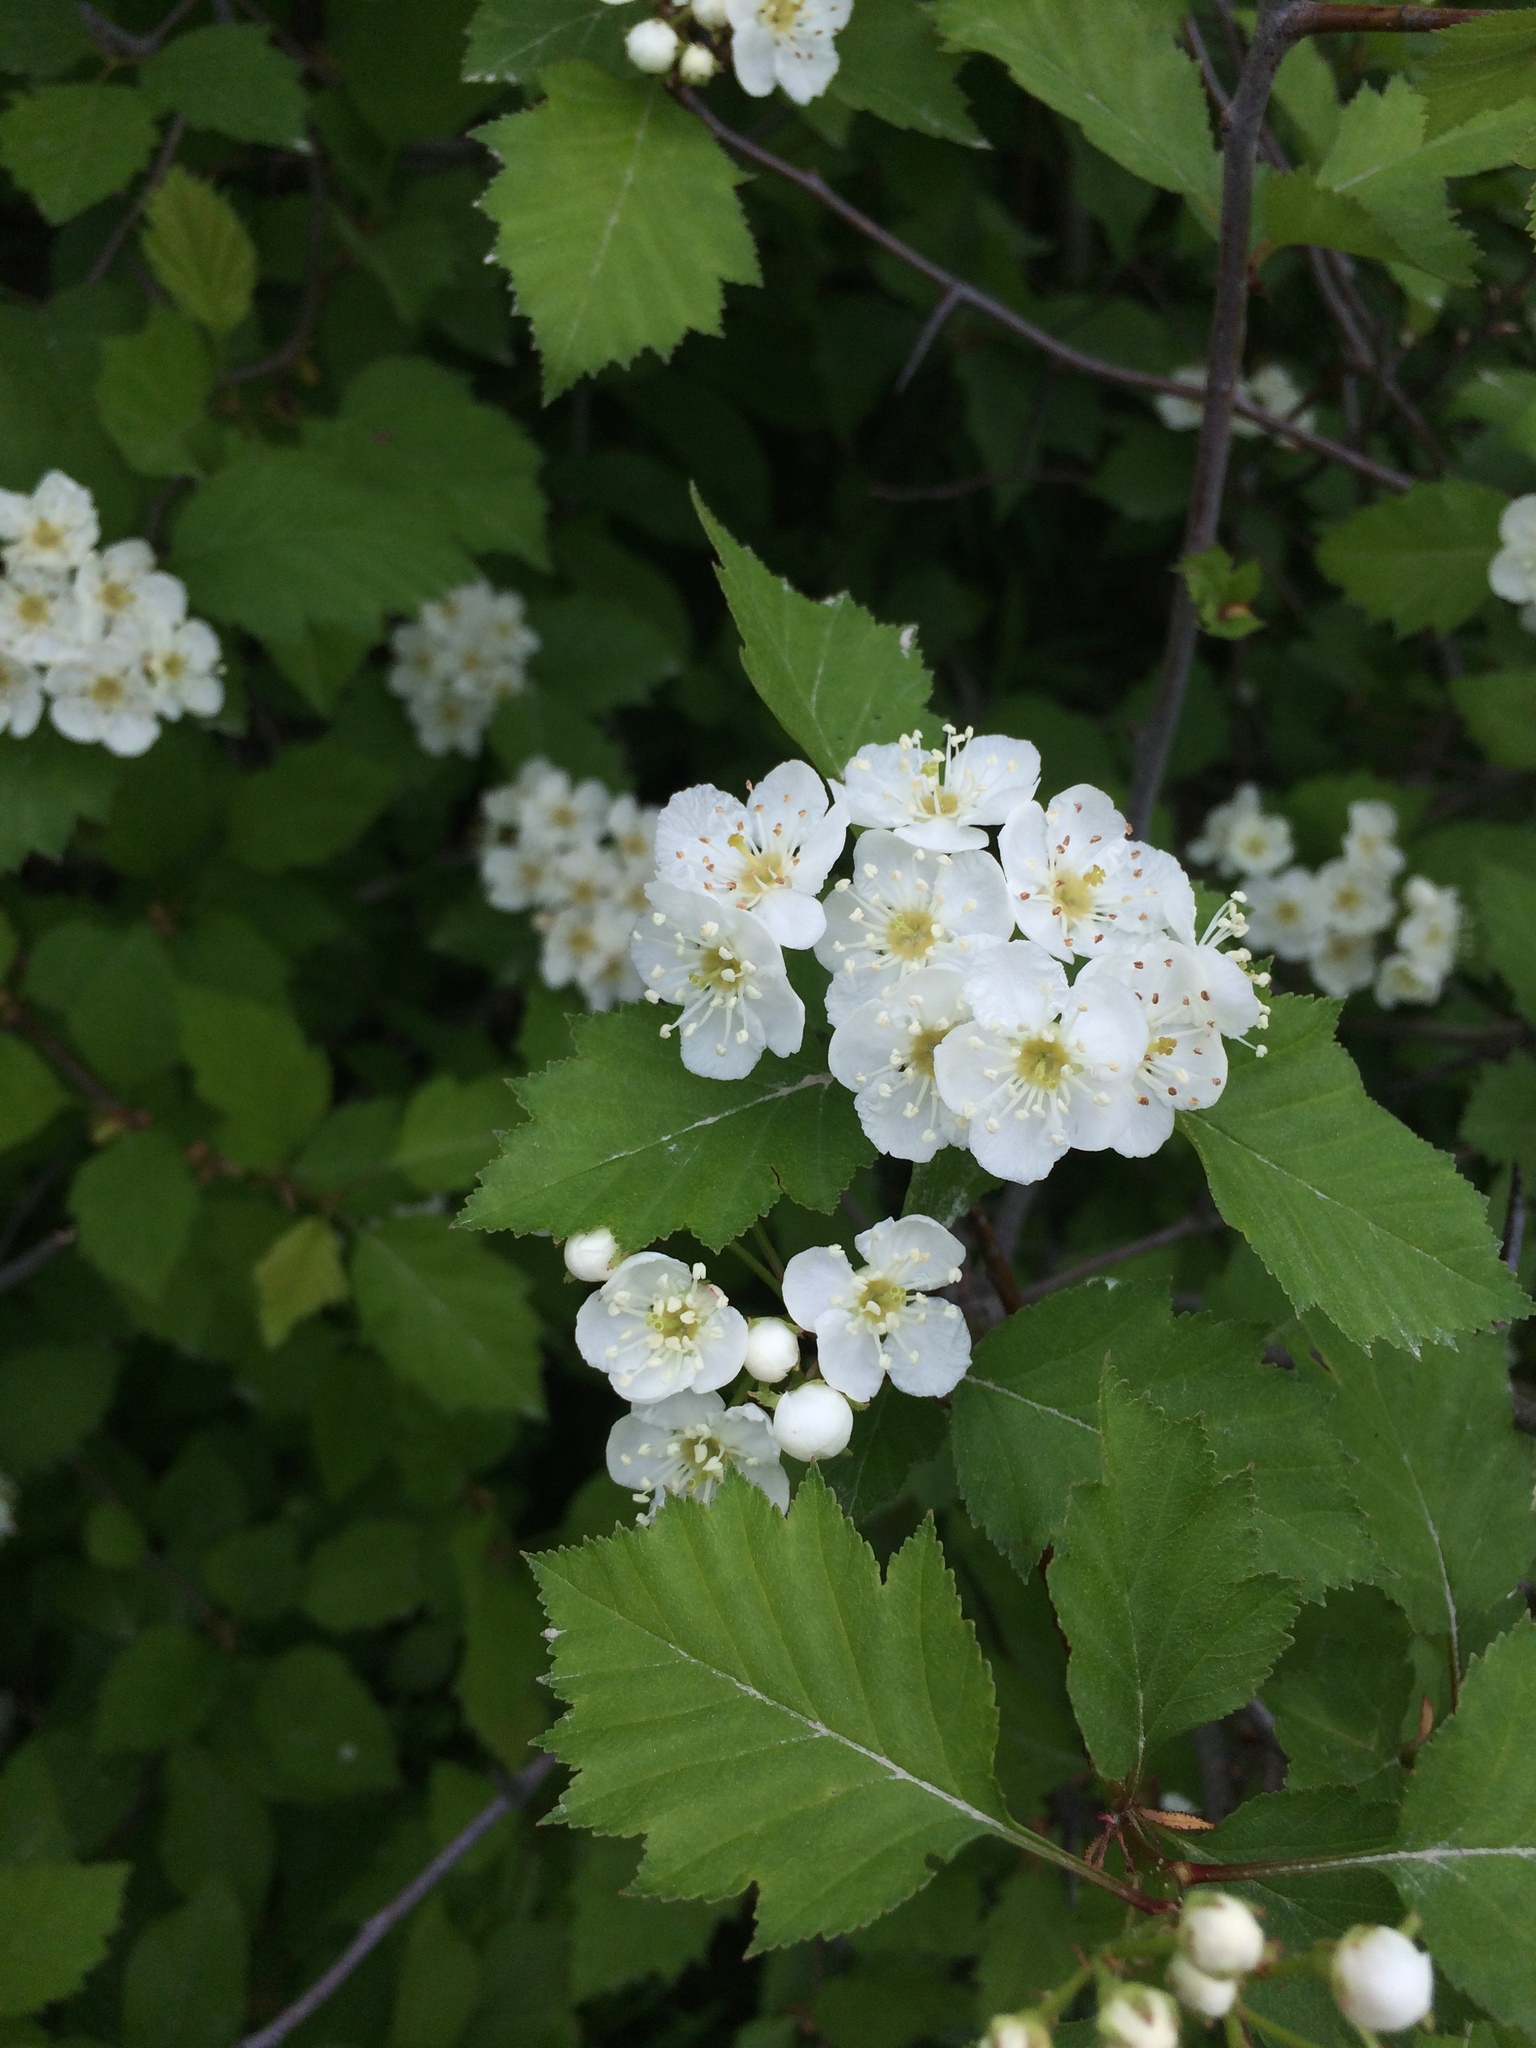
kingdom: Plantae
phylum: Tracheophyta
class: Magnoliopsida
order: Rosales
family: Rosaceae
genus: Crataegus
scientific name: Crataegus irrasa
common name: Unshorn hawthorn
